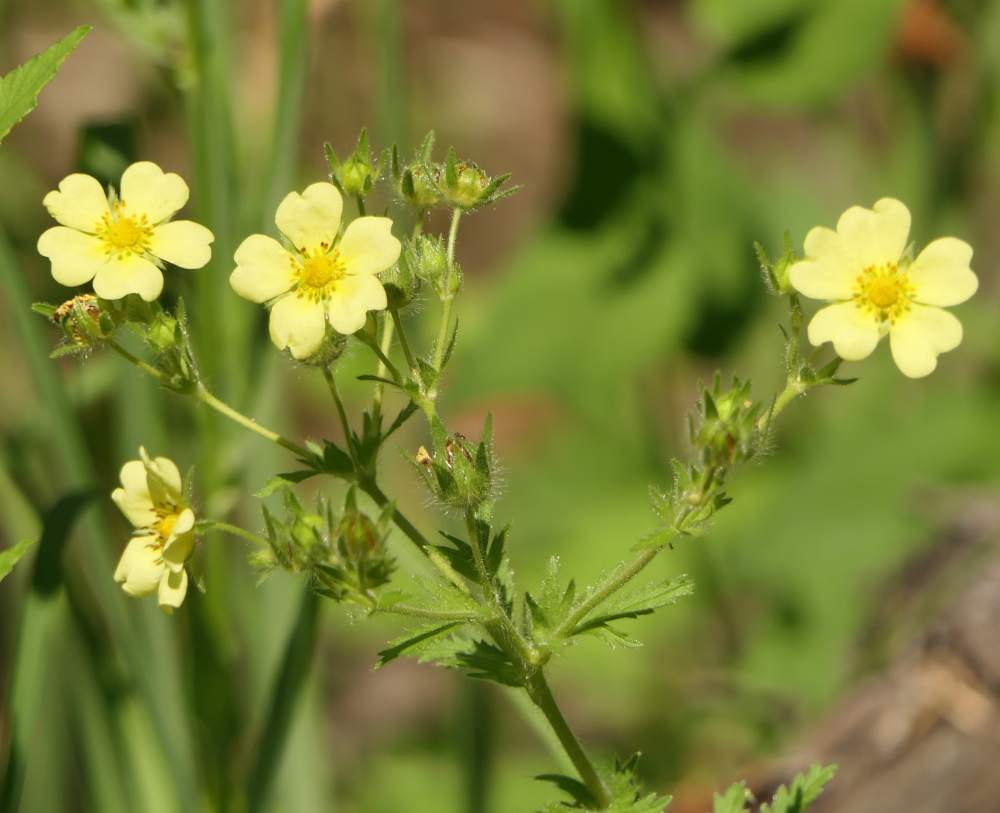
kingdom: Plantae
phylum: Tracheophyta
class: Magnoliopsida
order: Rosales
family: Rosaceae
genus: Potentilla
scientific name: Potentilla recta
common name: Sulphur cinquefoil
